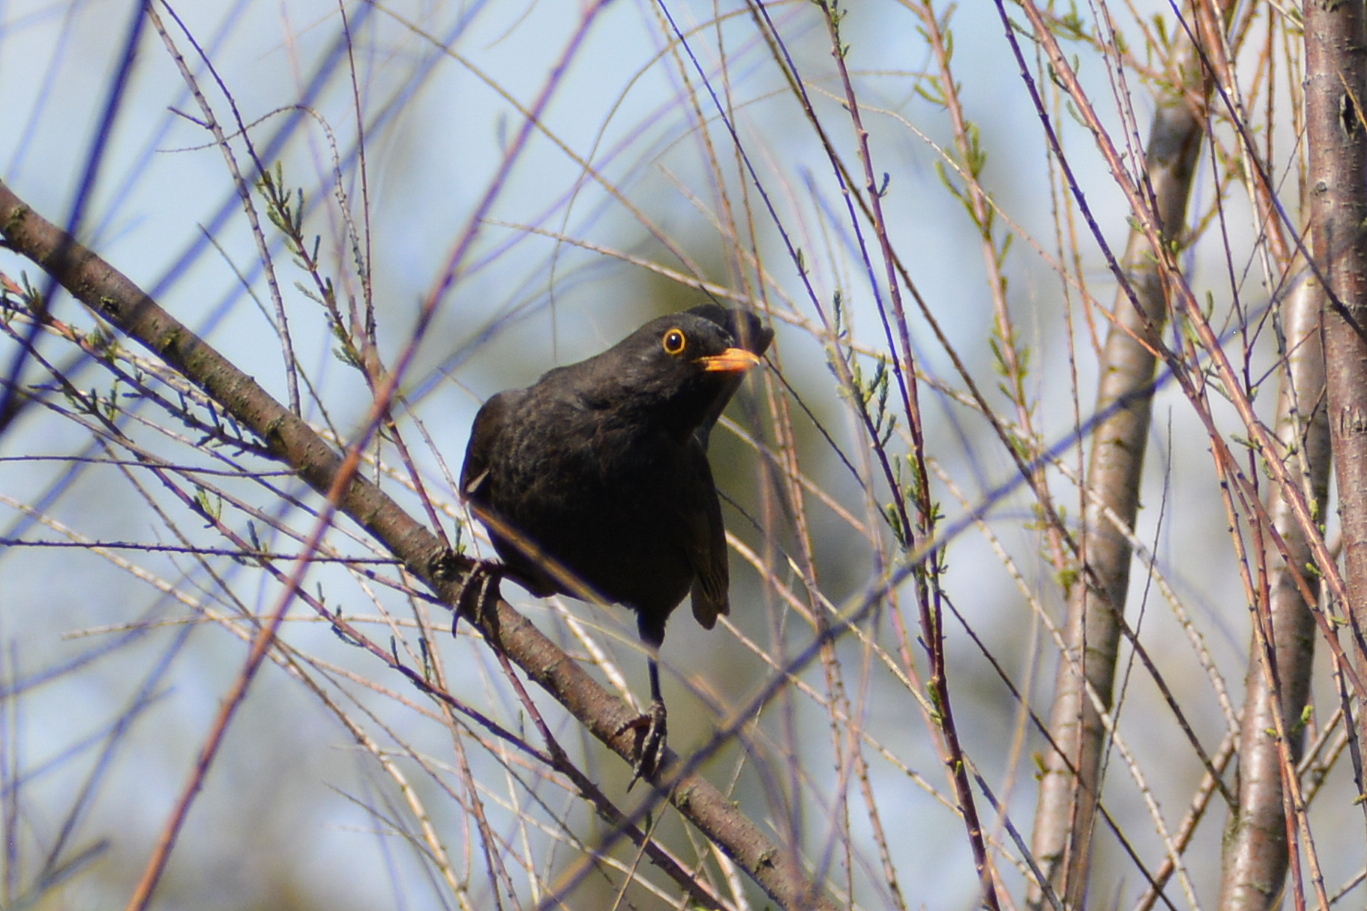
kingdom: Animalia
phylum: Chordata
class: Aves
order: Passeriformes
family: Turdidae
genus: Turdus
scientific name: Turdus merula
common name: Common blackbird
